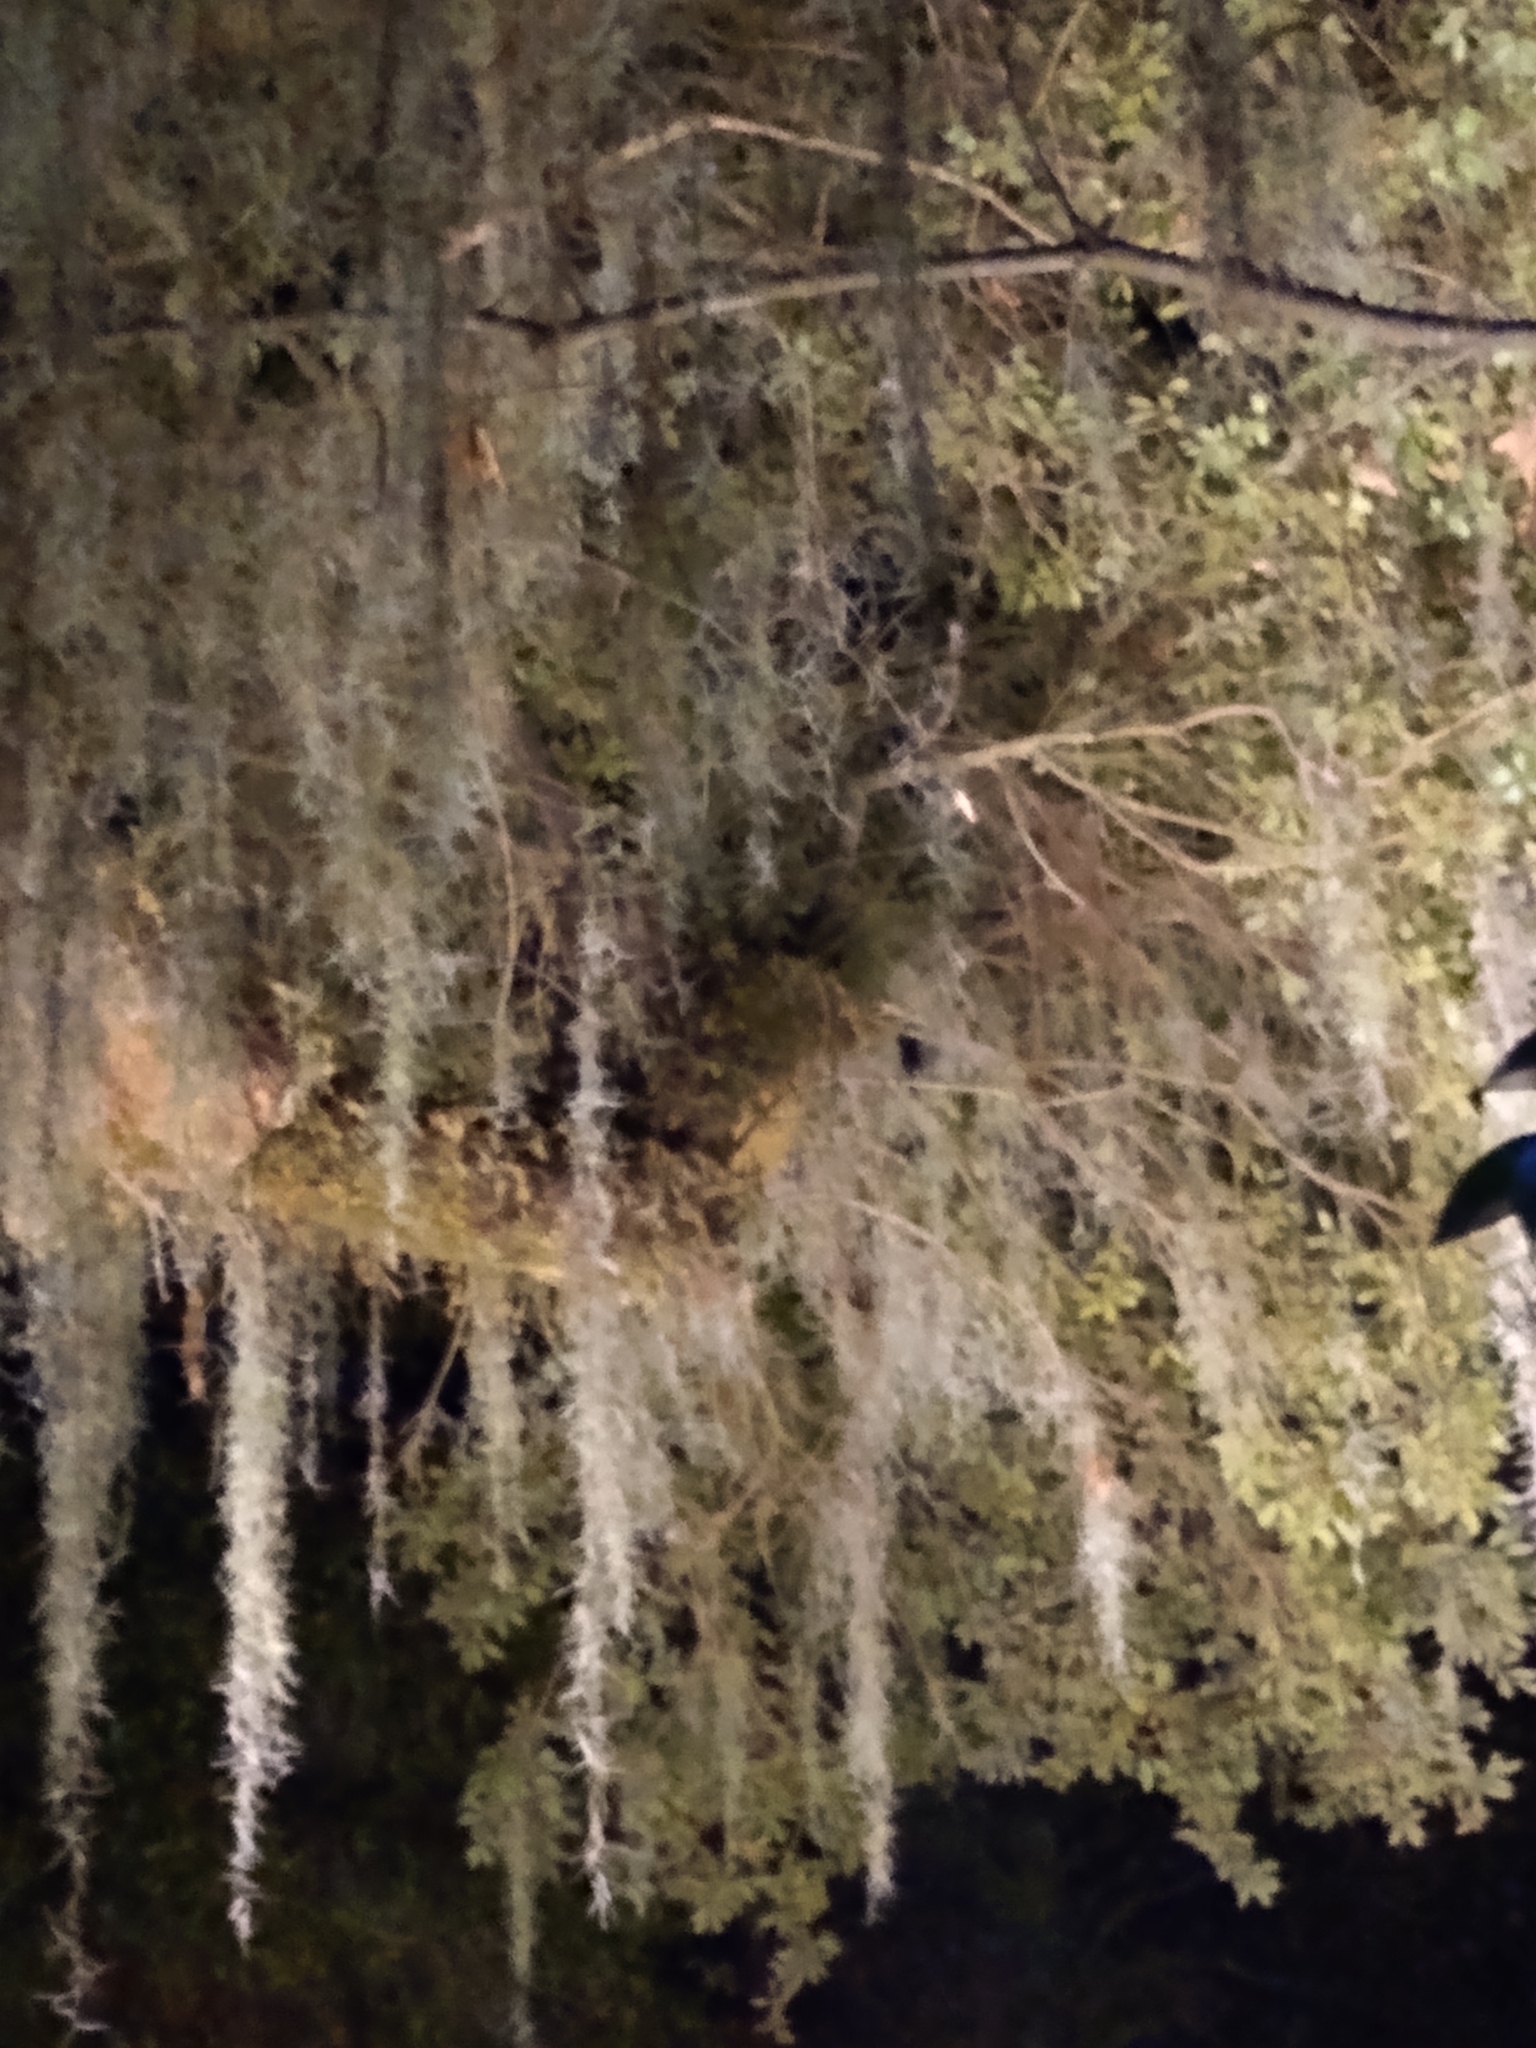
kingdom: Plantae
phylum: Tracheophyta
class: Liliopsida
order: Poales
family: Bromeliaceae
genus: Tillandsia
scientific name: Tillandsia usneoides
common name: Spanish moss
